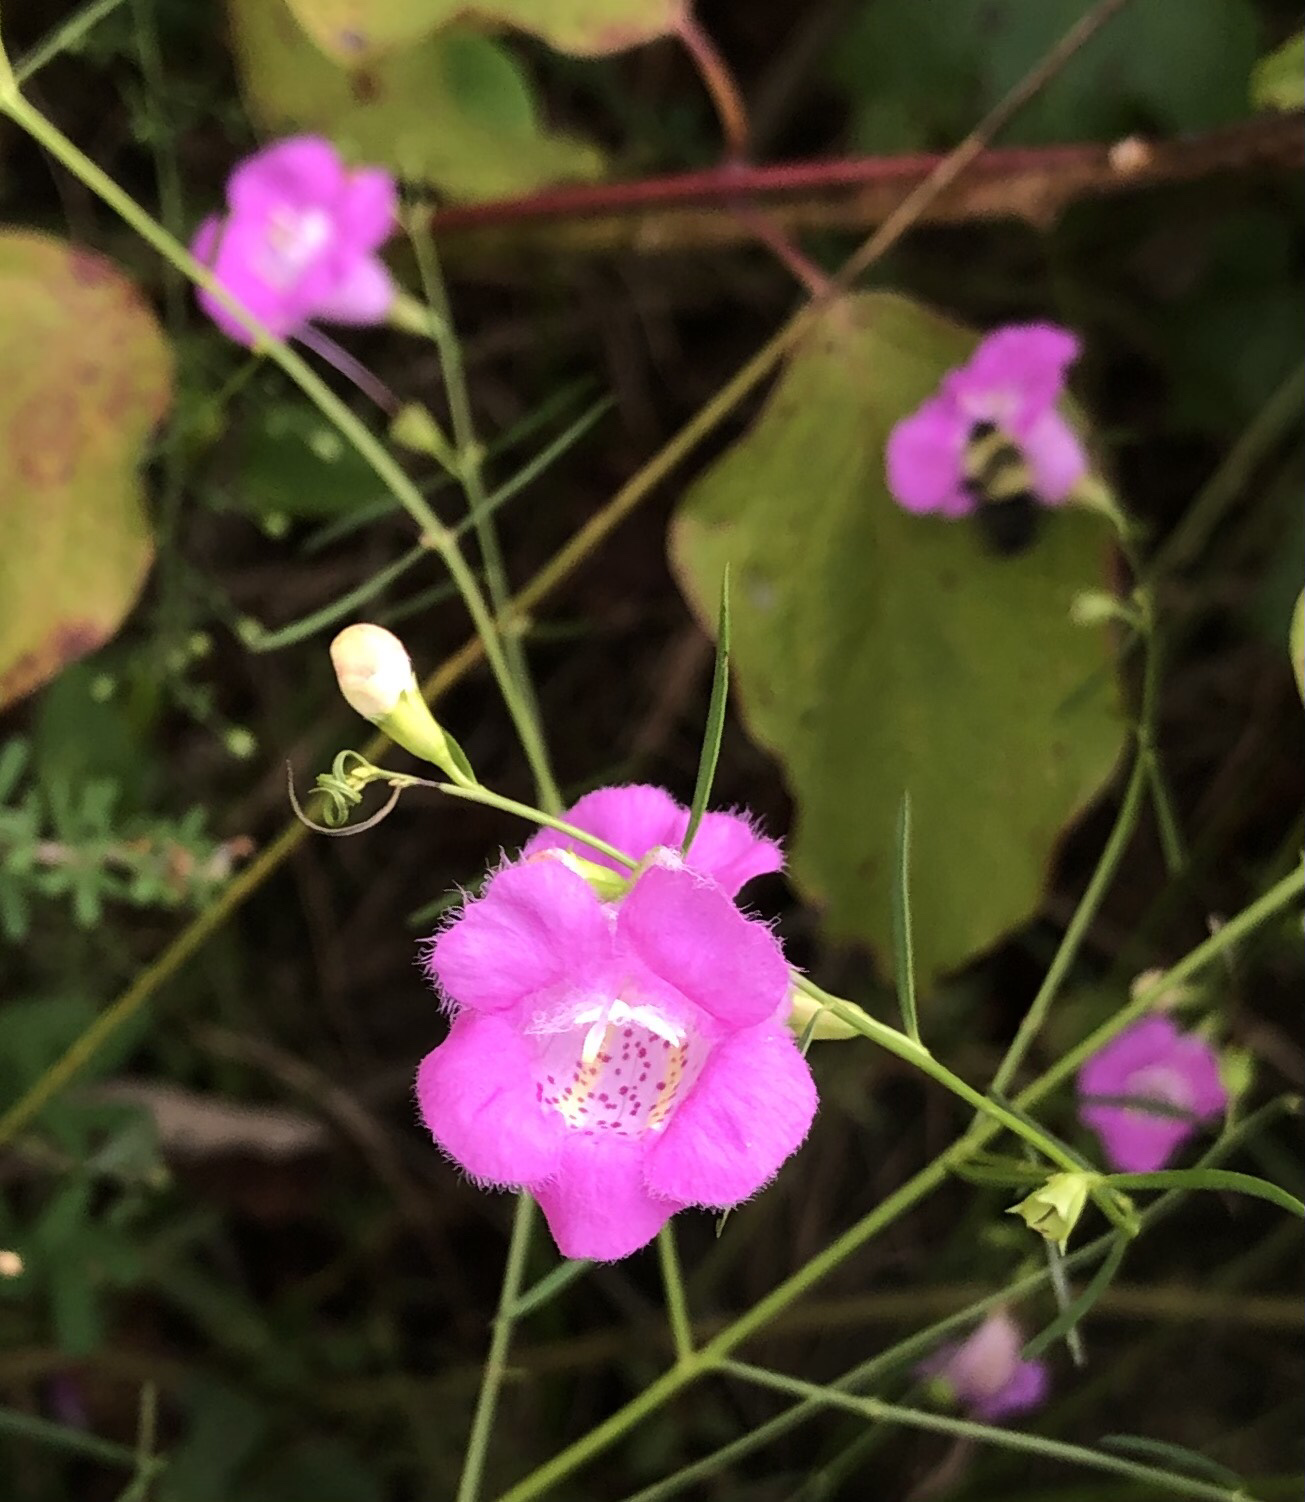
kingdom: Plantae
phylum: Tracheophyta
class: Magnoliopsida
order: Lamiales
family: Orobanchaceae
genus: Agalinis
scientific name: Agalinis purpurea
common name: Purple false foxglove
